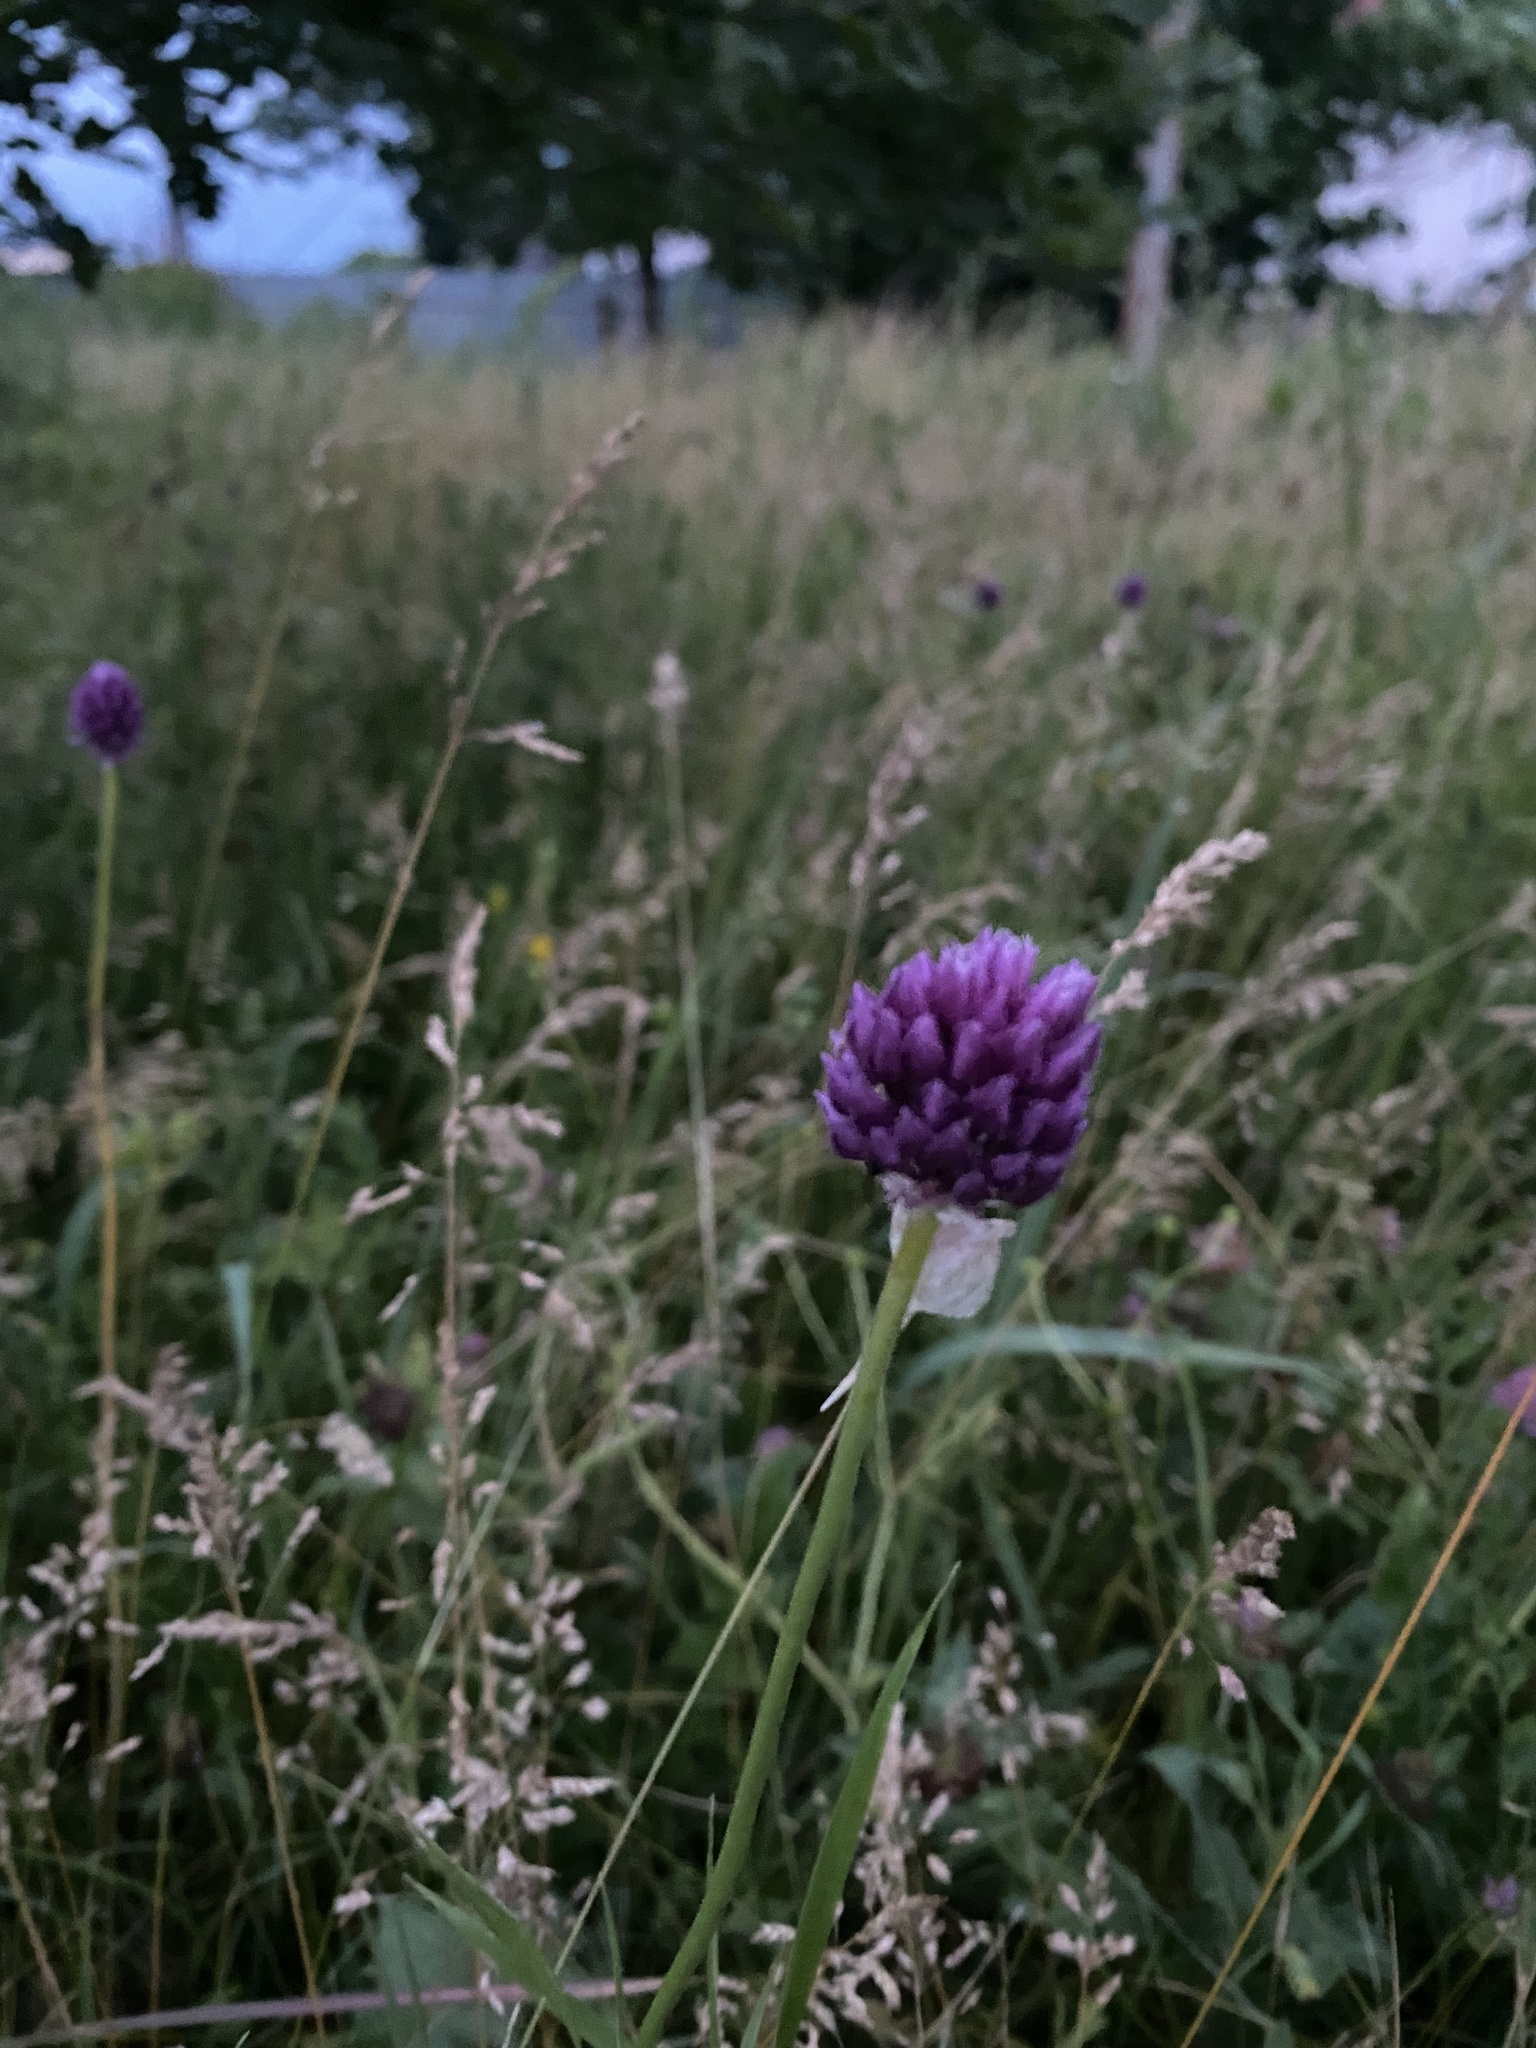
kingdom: Plantae
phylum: Tracheophyta
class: Liliopsida
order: Asparagales
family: Amaryllidaceae
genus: Allium
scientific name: Allium rotundum
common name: Sand leek
